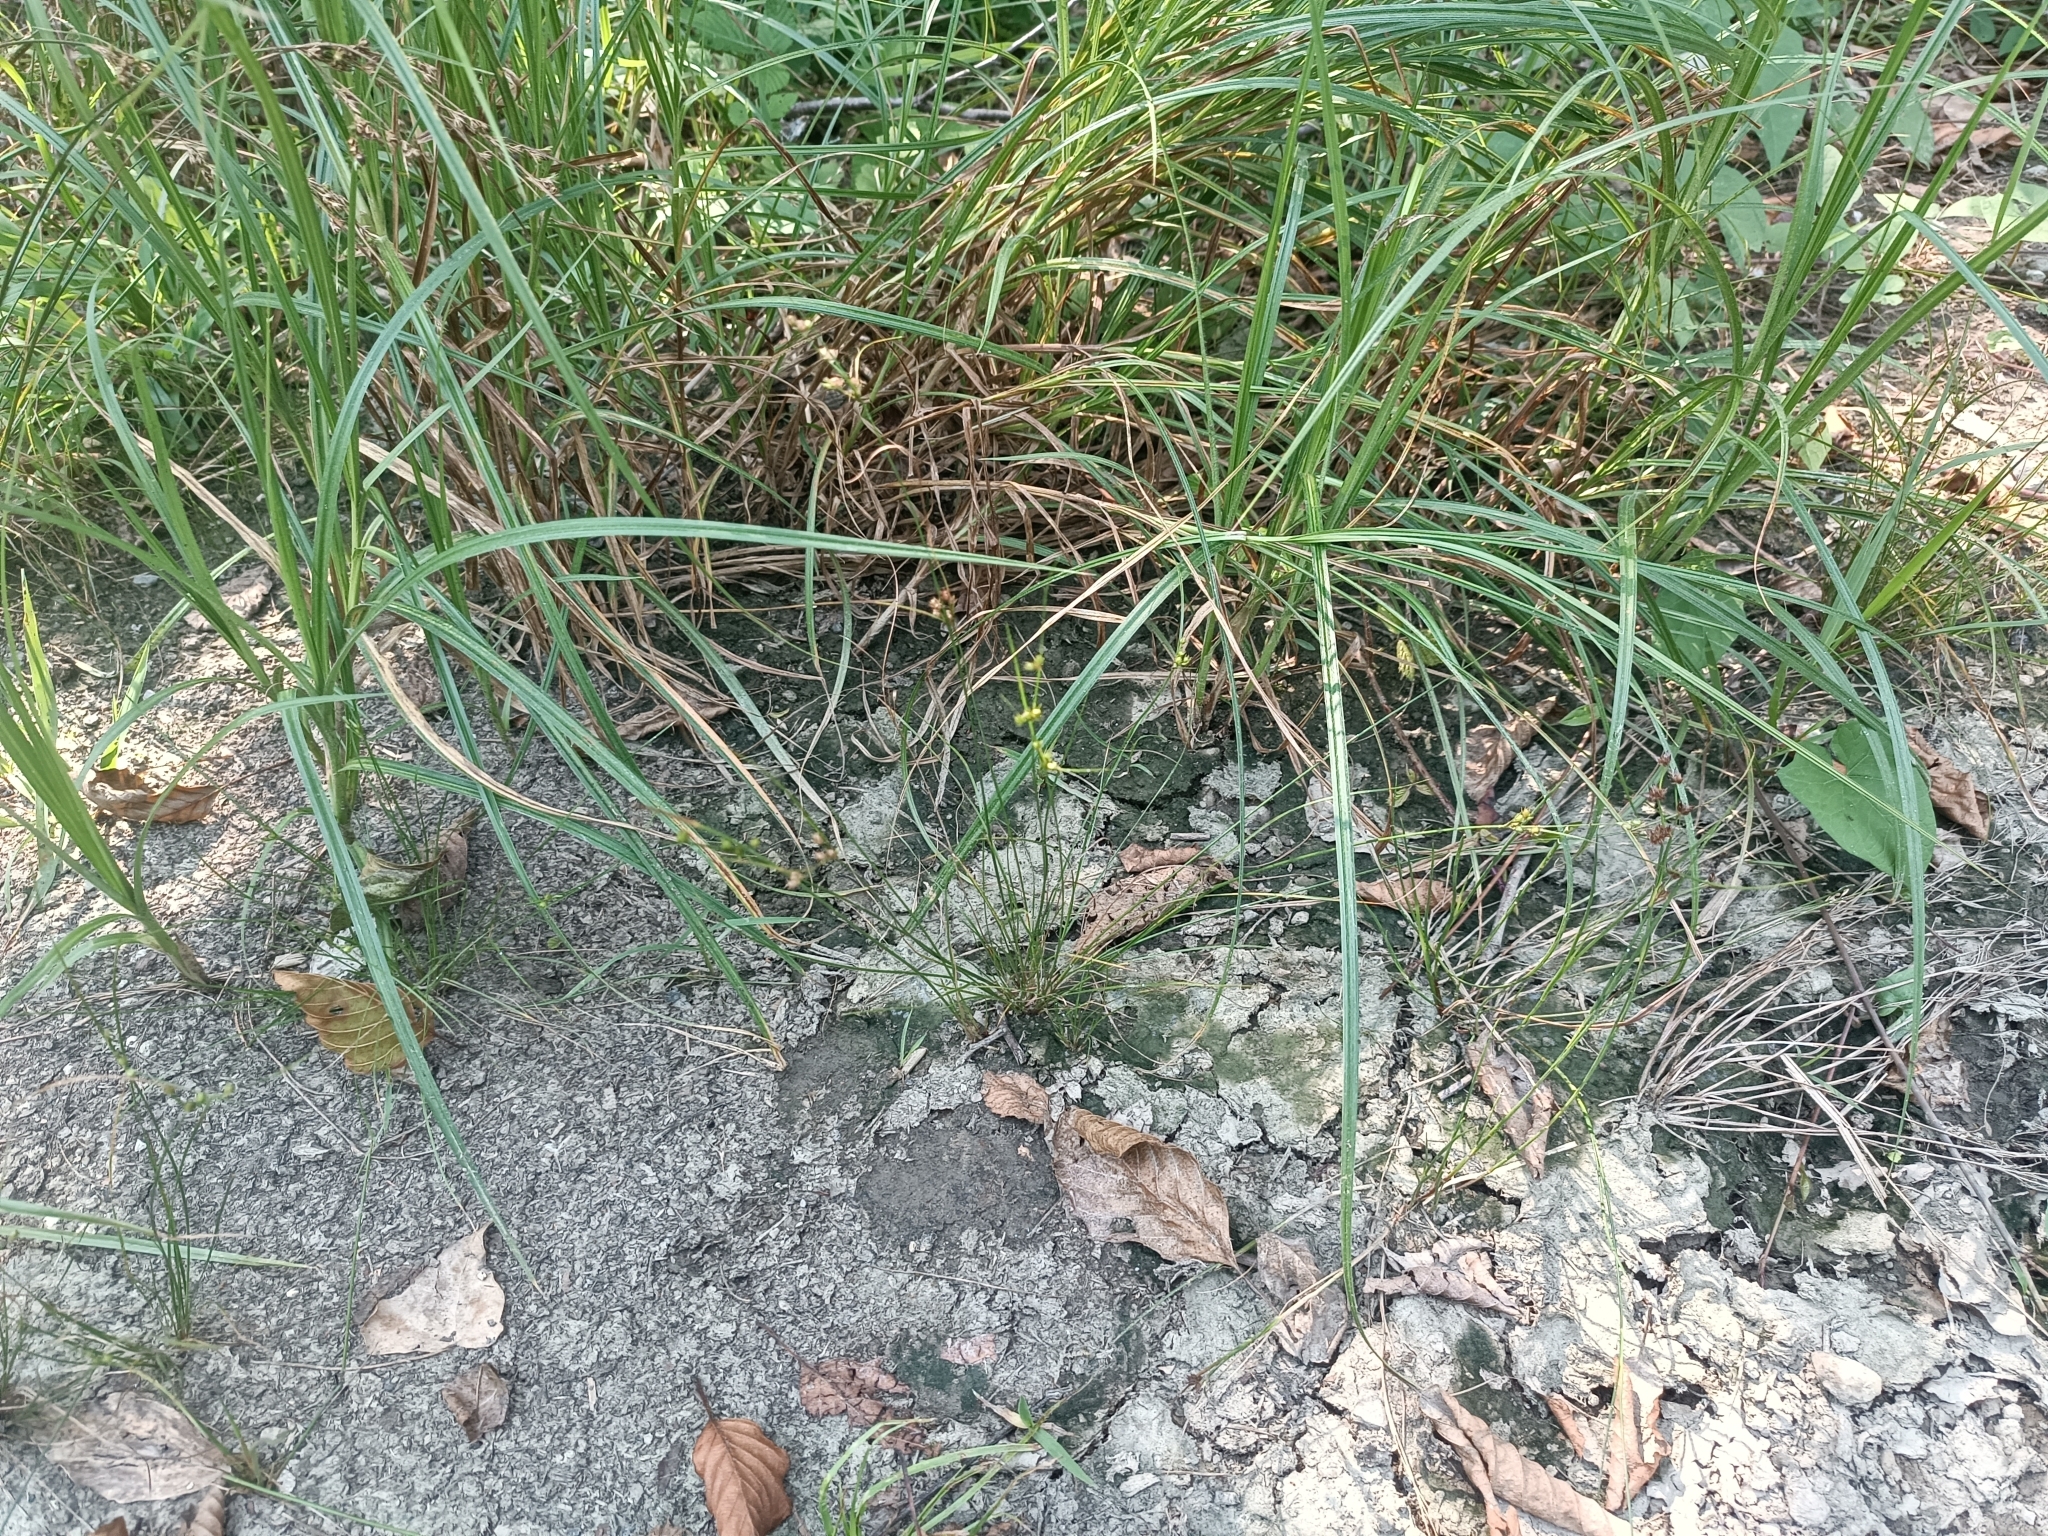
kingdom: Plantae
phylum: Tracheophyta
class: Liliopsida
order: Poales
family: Juncaceae
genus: Juncus
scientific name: Juncus tenuis
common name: Slender rush
